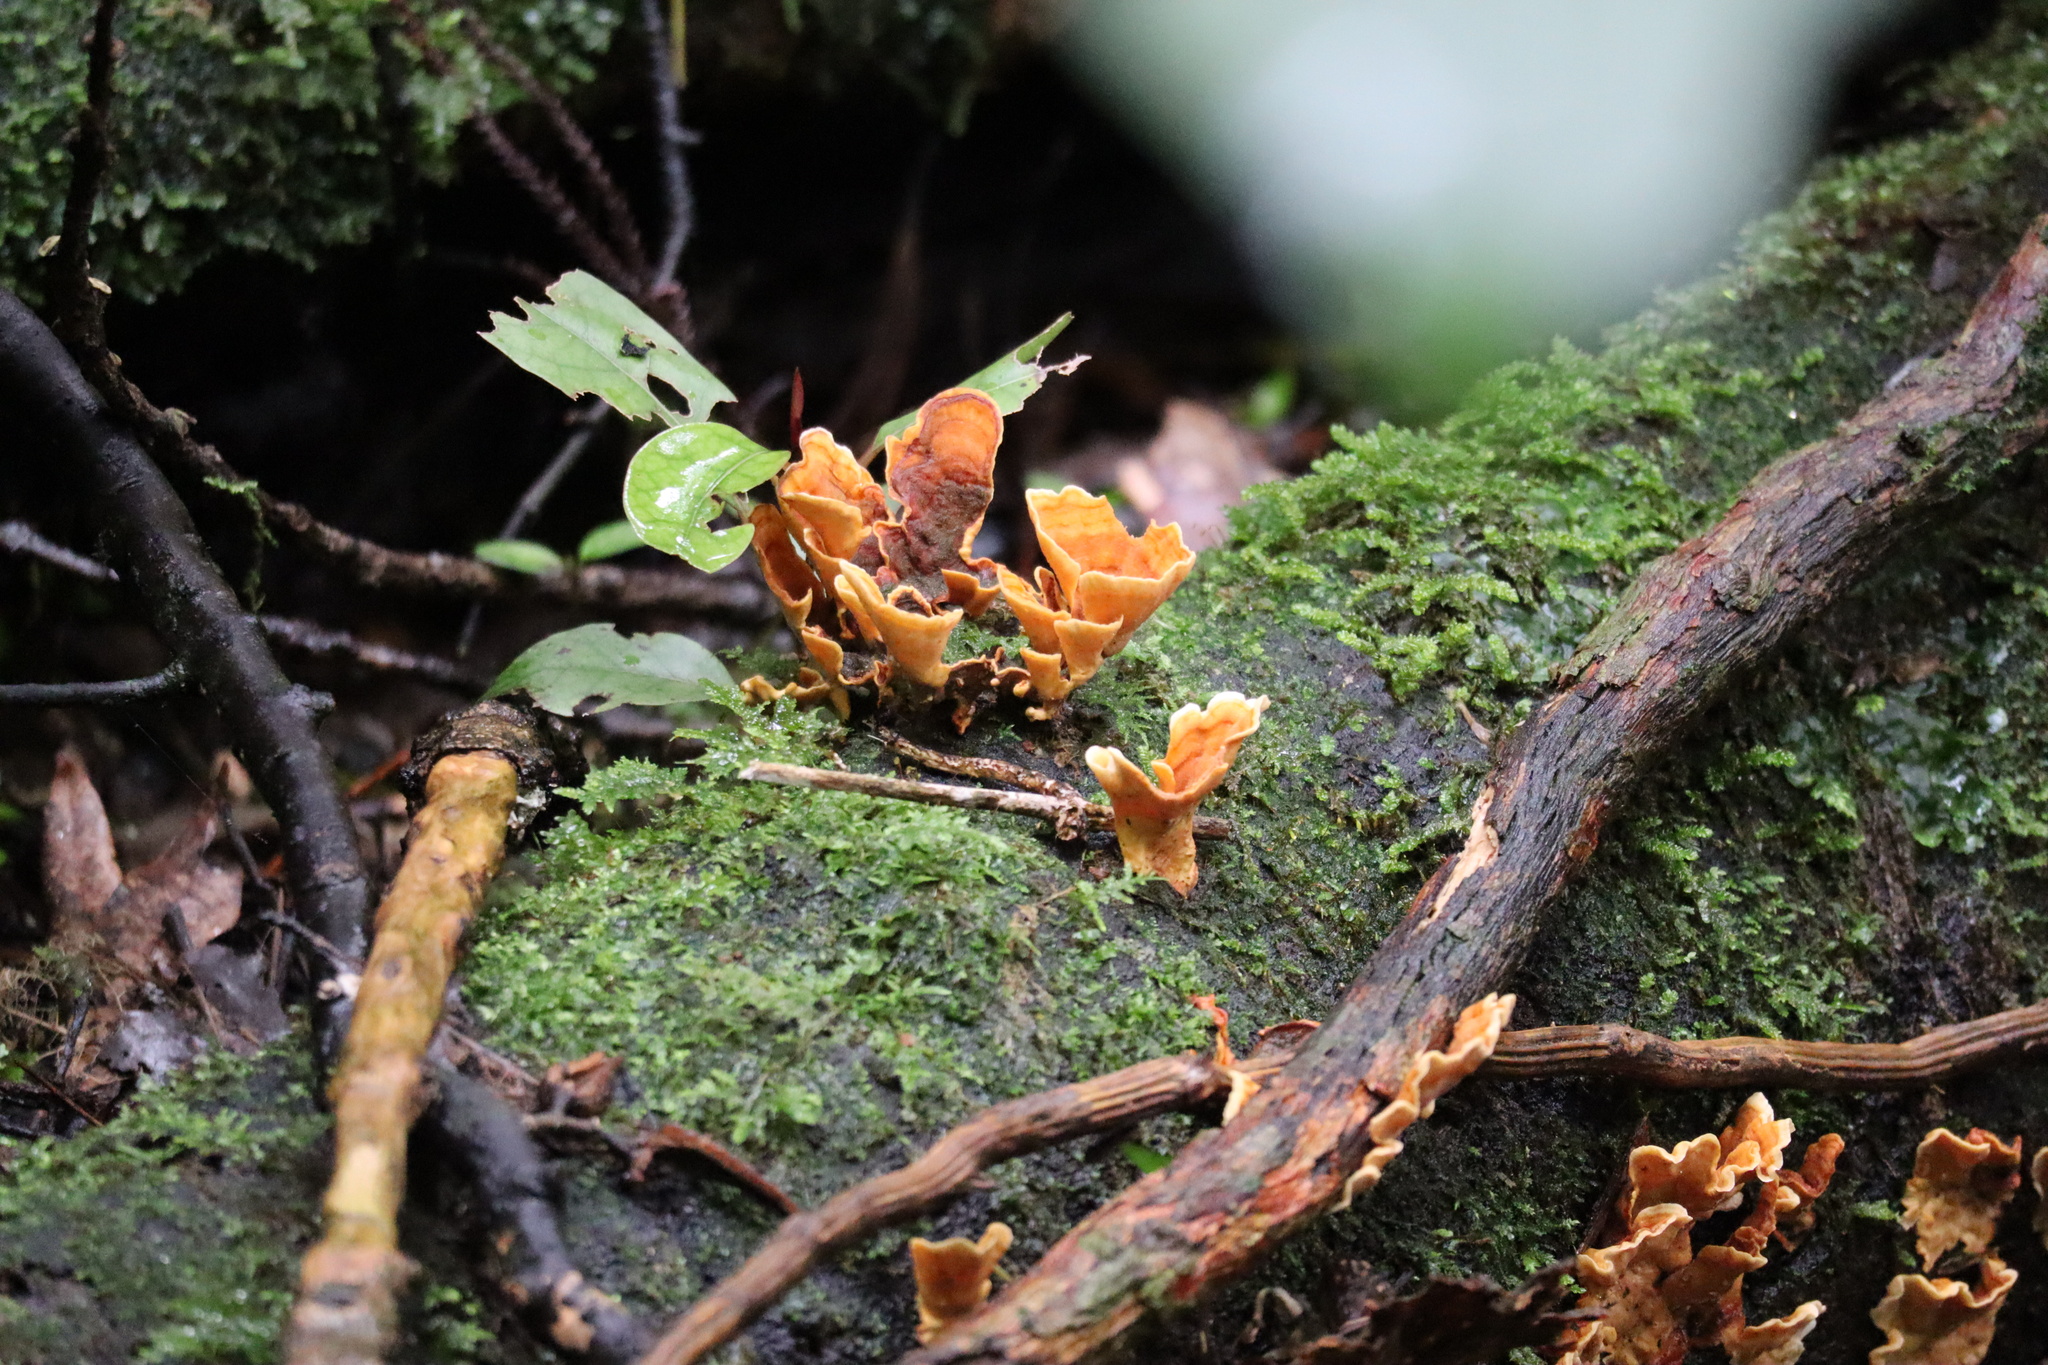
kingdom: Fungi
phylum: Basidiomycota
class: Agaricomycetes
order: Russulales
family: Stereaceae
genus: Stereum
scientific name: Stereum versicolor
